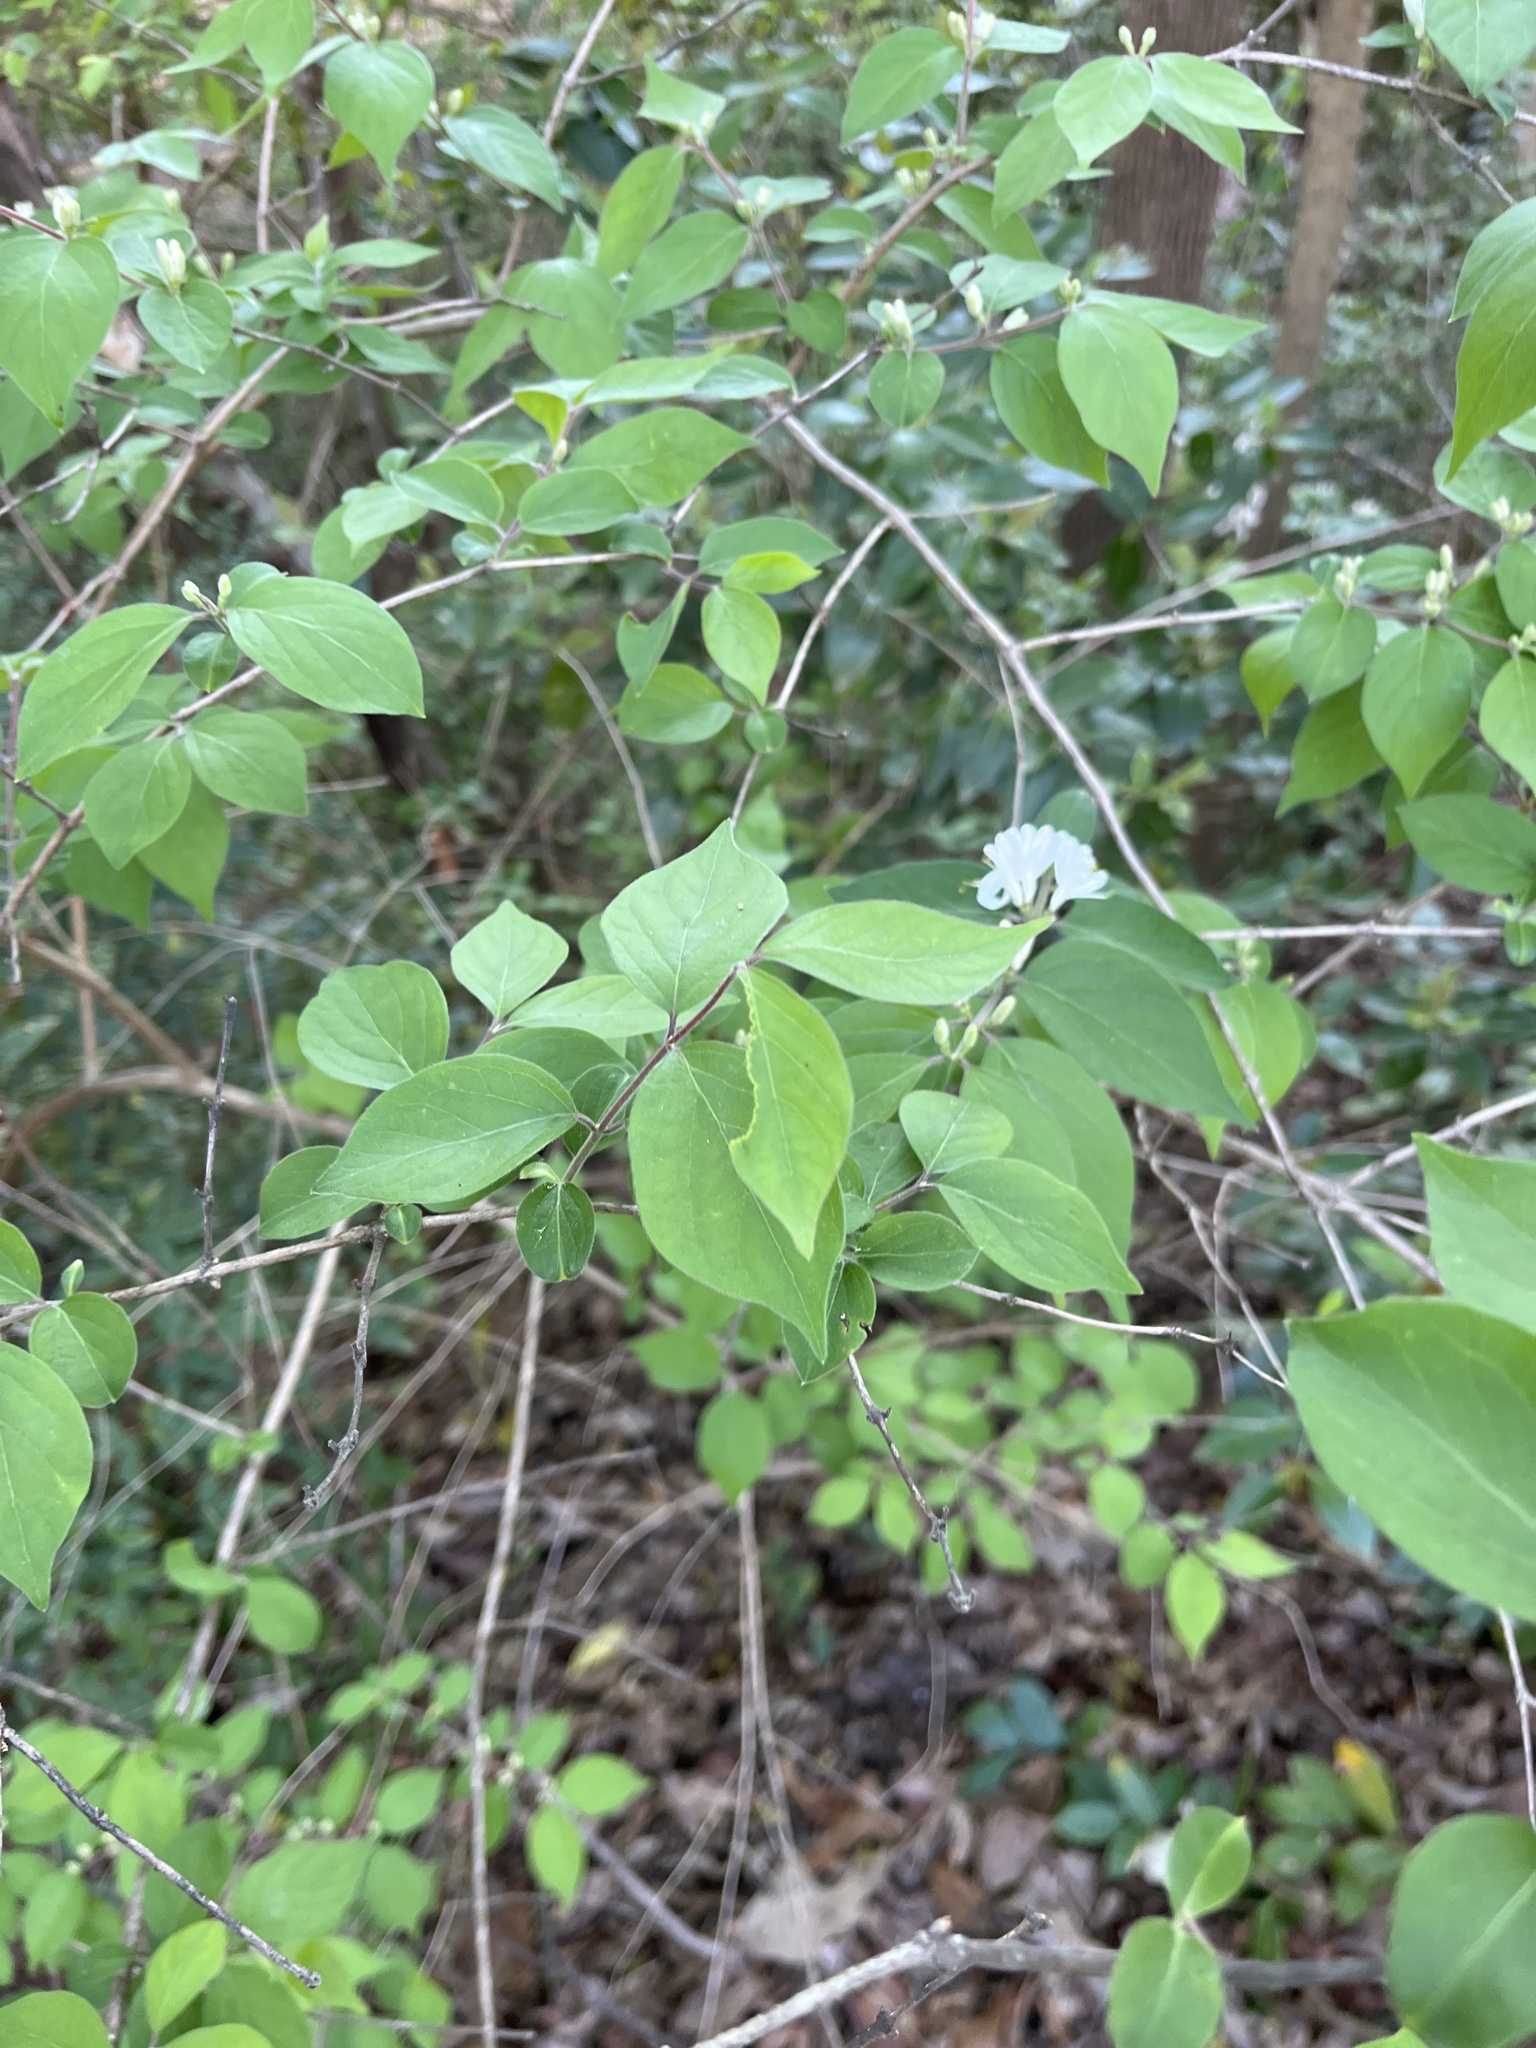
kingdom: Plantae
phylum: Tracheophyta
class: Magnoliopsida
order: Dipsacales
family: Caprifoliaceae
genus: Lonicera
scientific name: Lonicera maackii
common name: Amur honeysuckle
